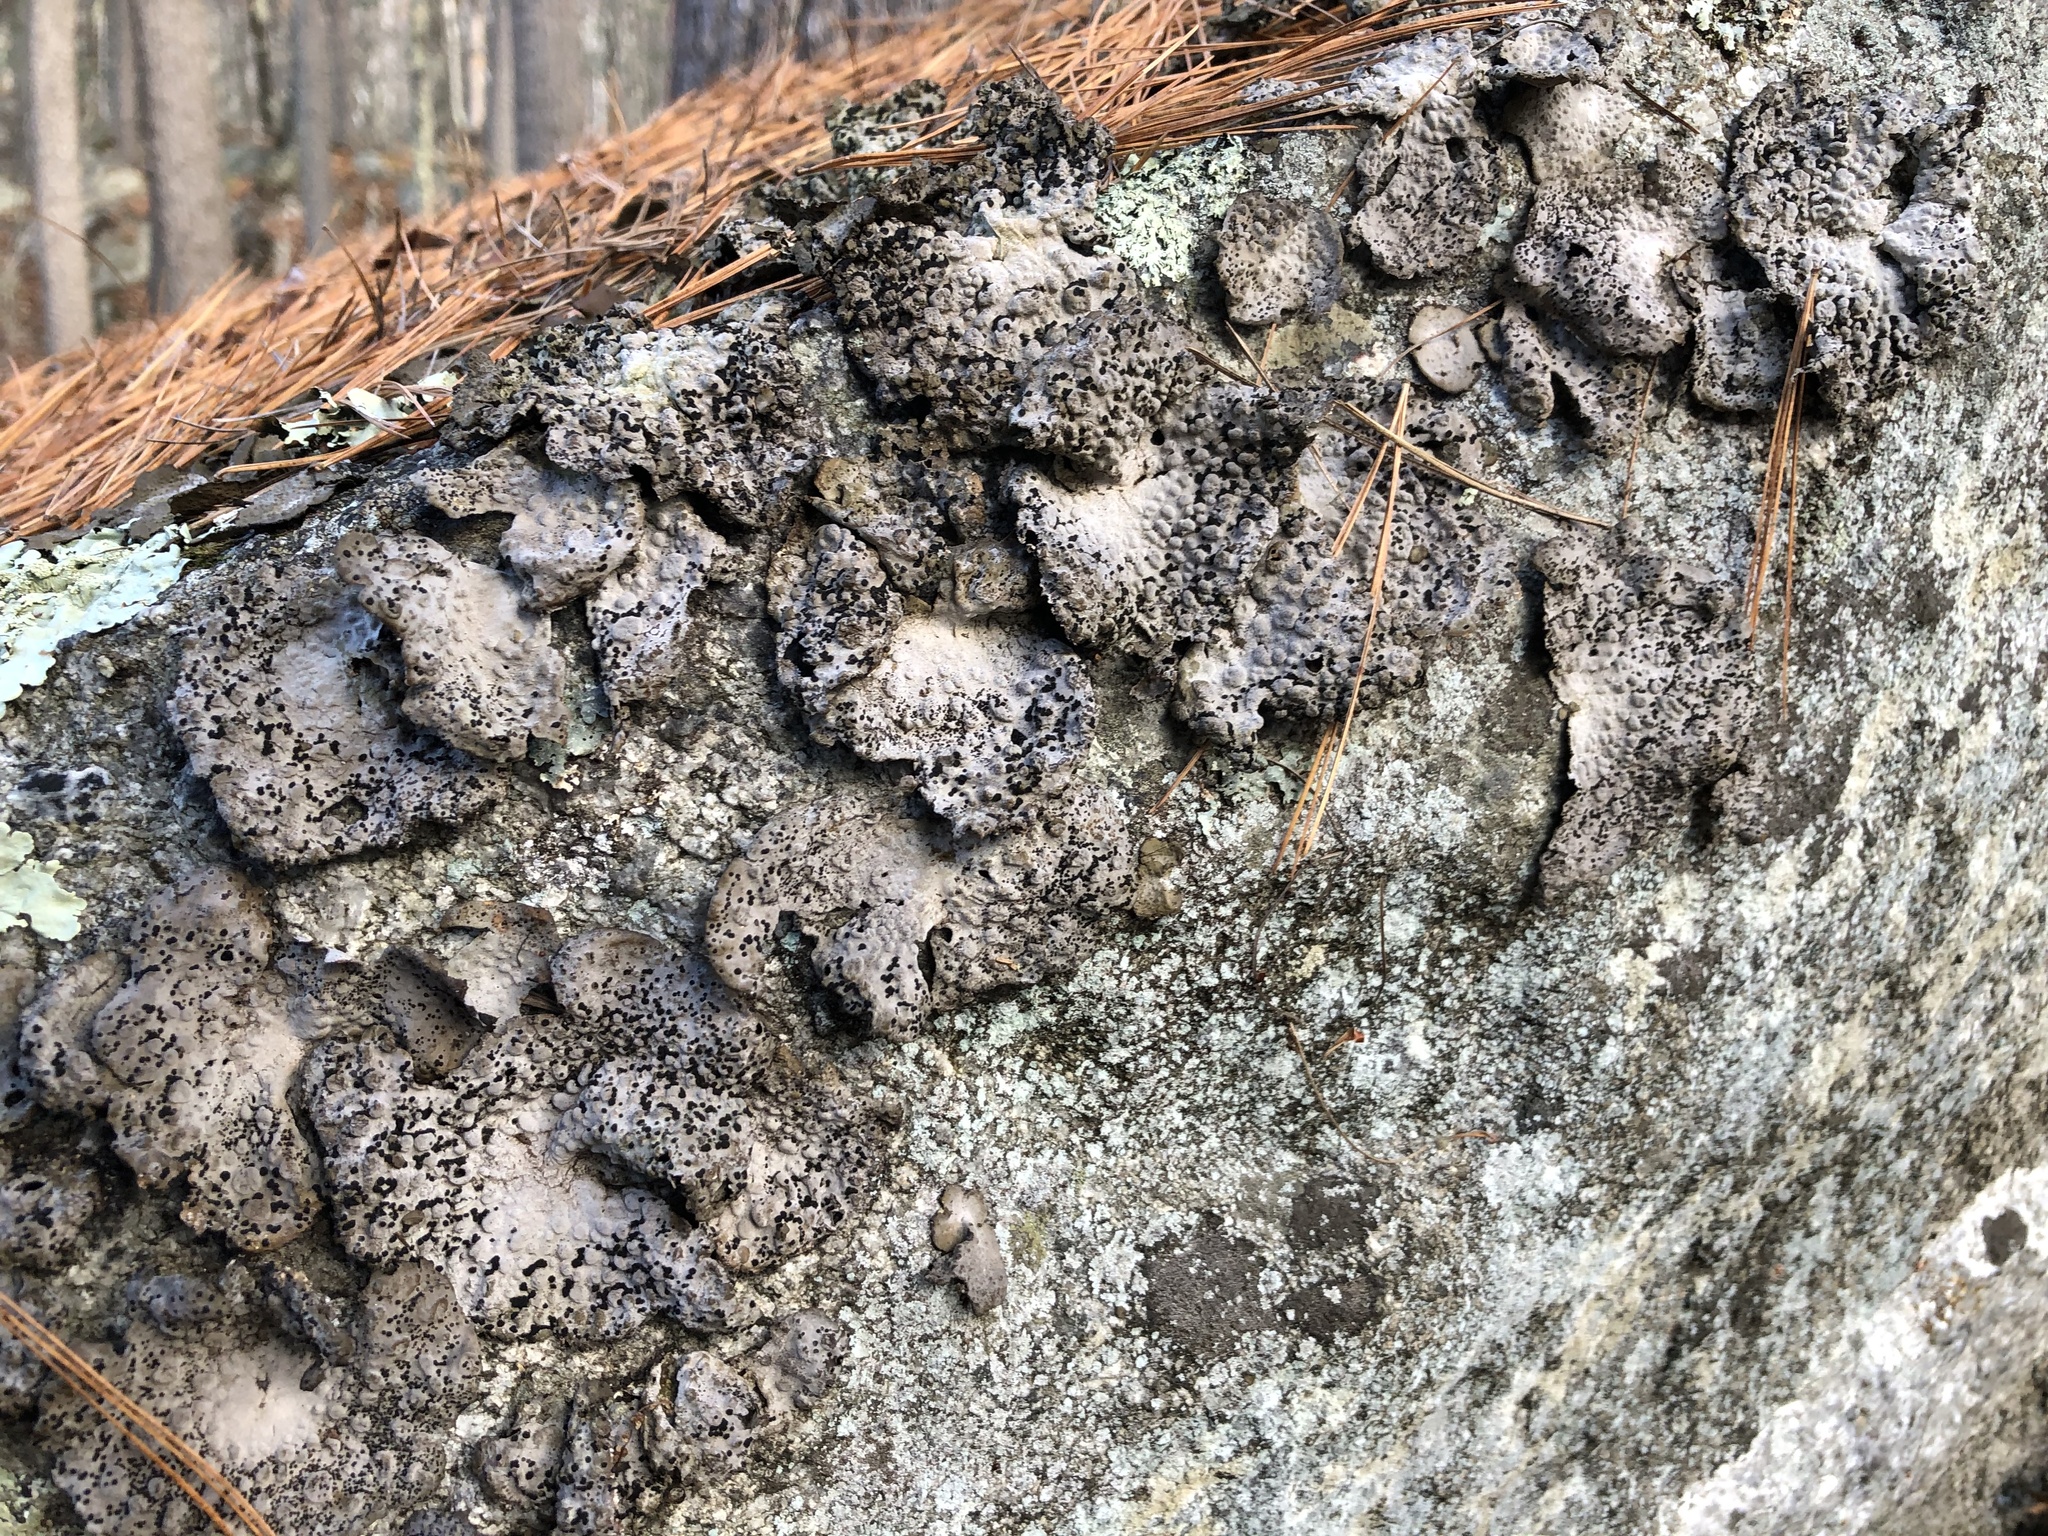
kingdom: Fungi
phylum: Ascomycota
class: Lecanoromycetes
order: Umbilicariales
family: Umbilicariaceae
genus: Lasallia
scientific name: Lasallia papulosa
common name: Common toadskin lichen
